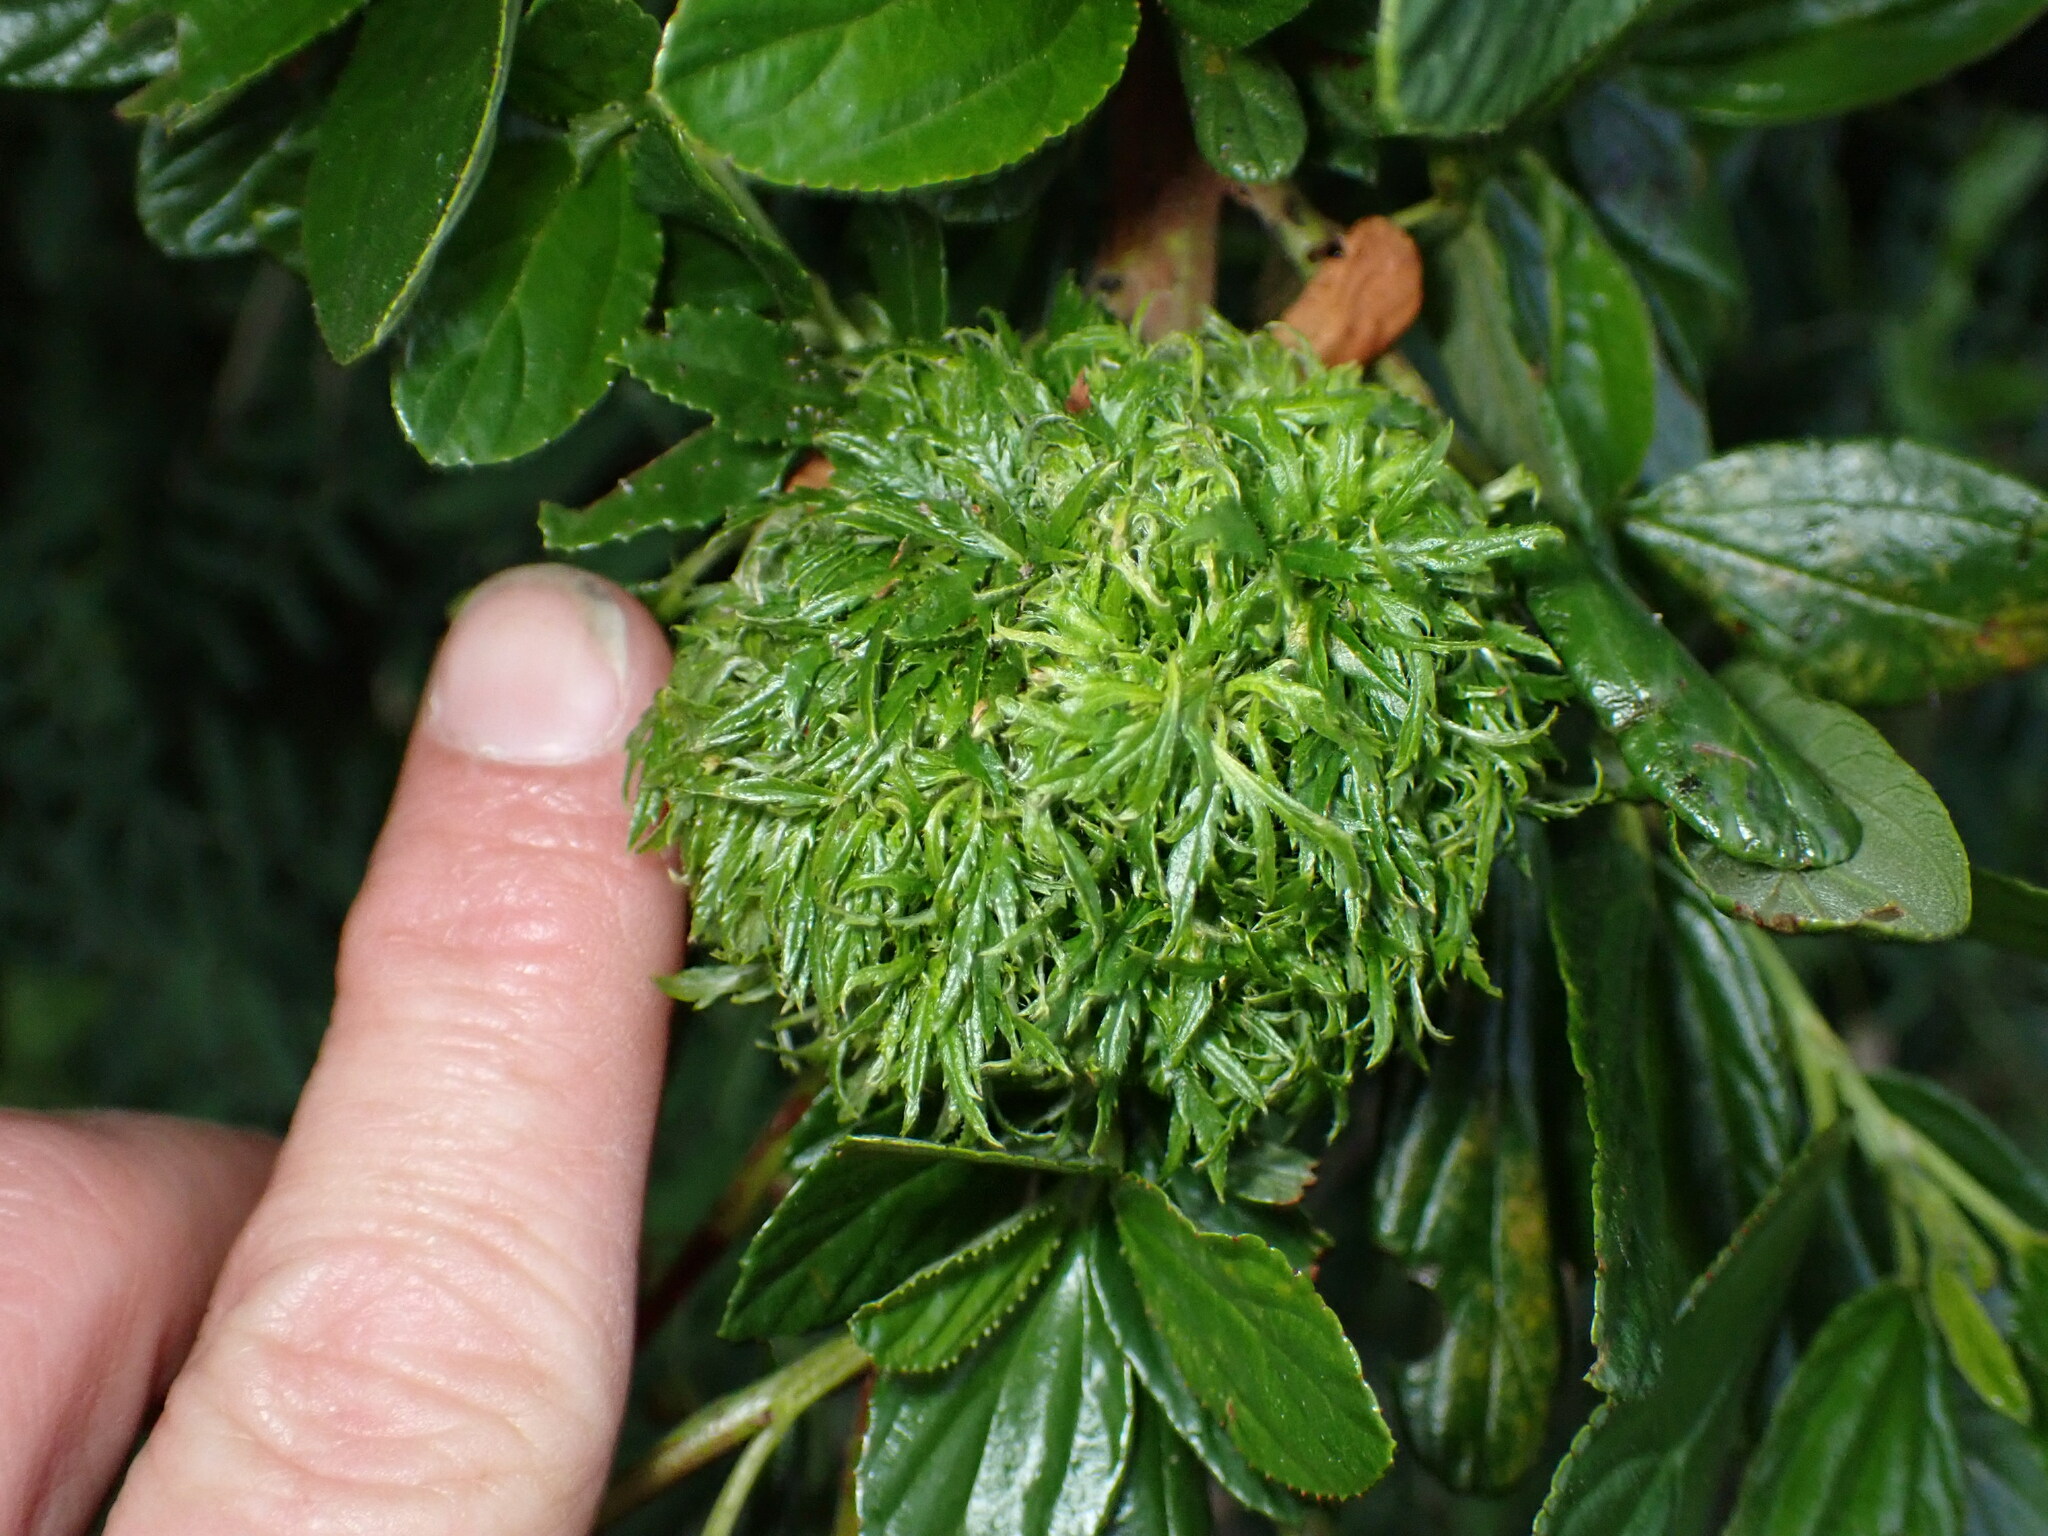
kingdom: Animalia
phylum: Arthropoda
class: Insecta
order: Diptera
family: Cecidomyiidae
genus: Asphondylia
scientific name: Asphondylia ceanothi
